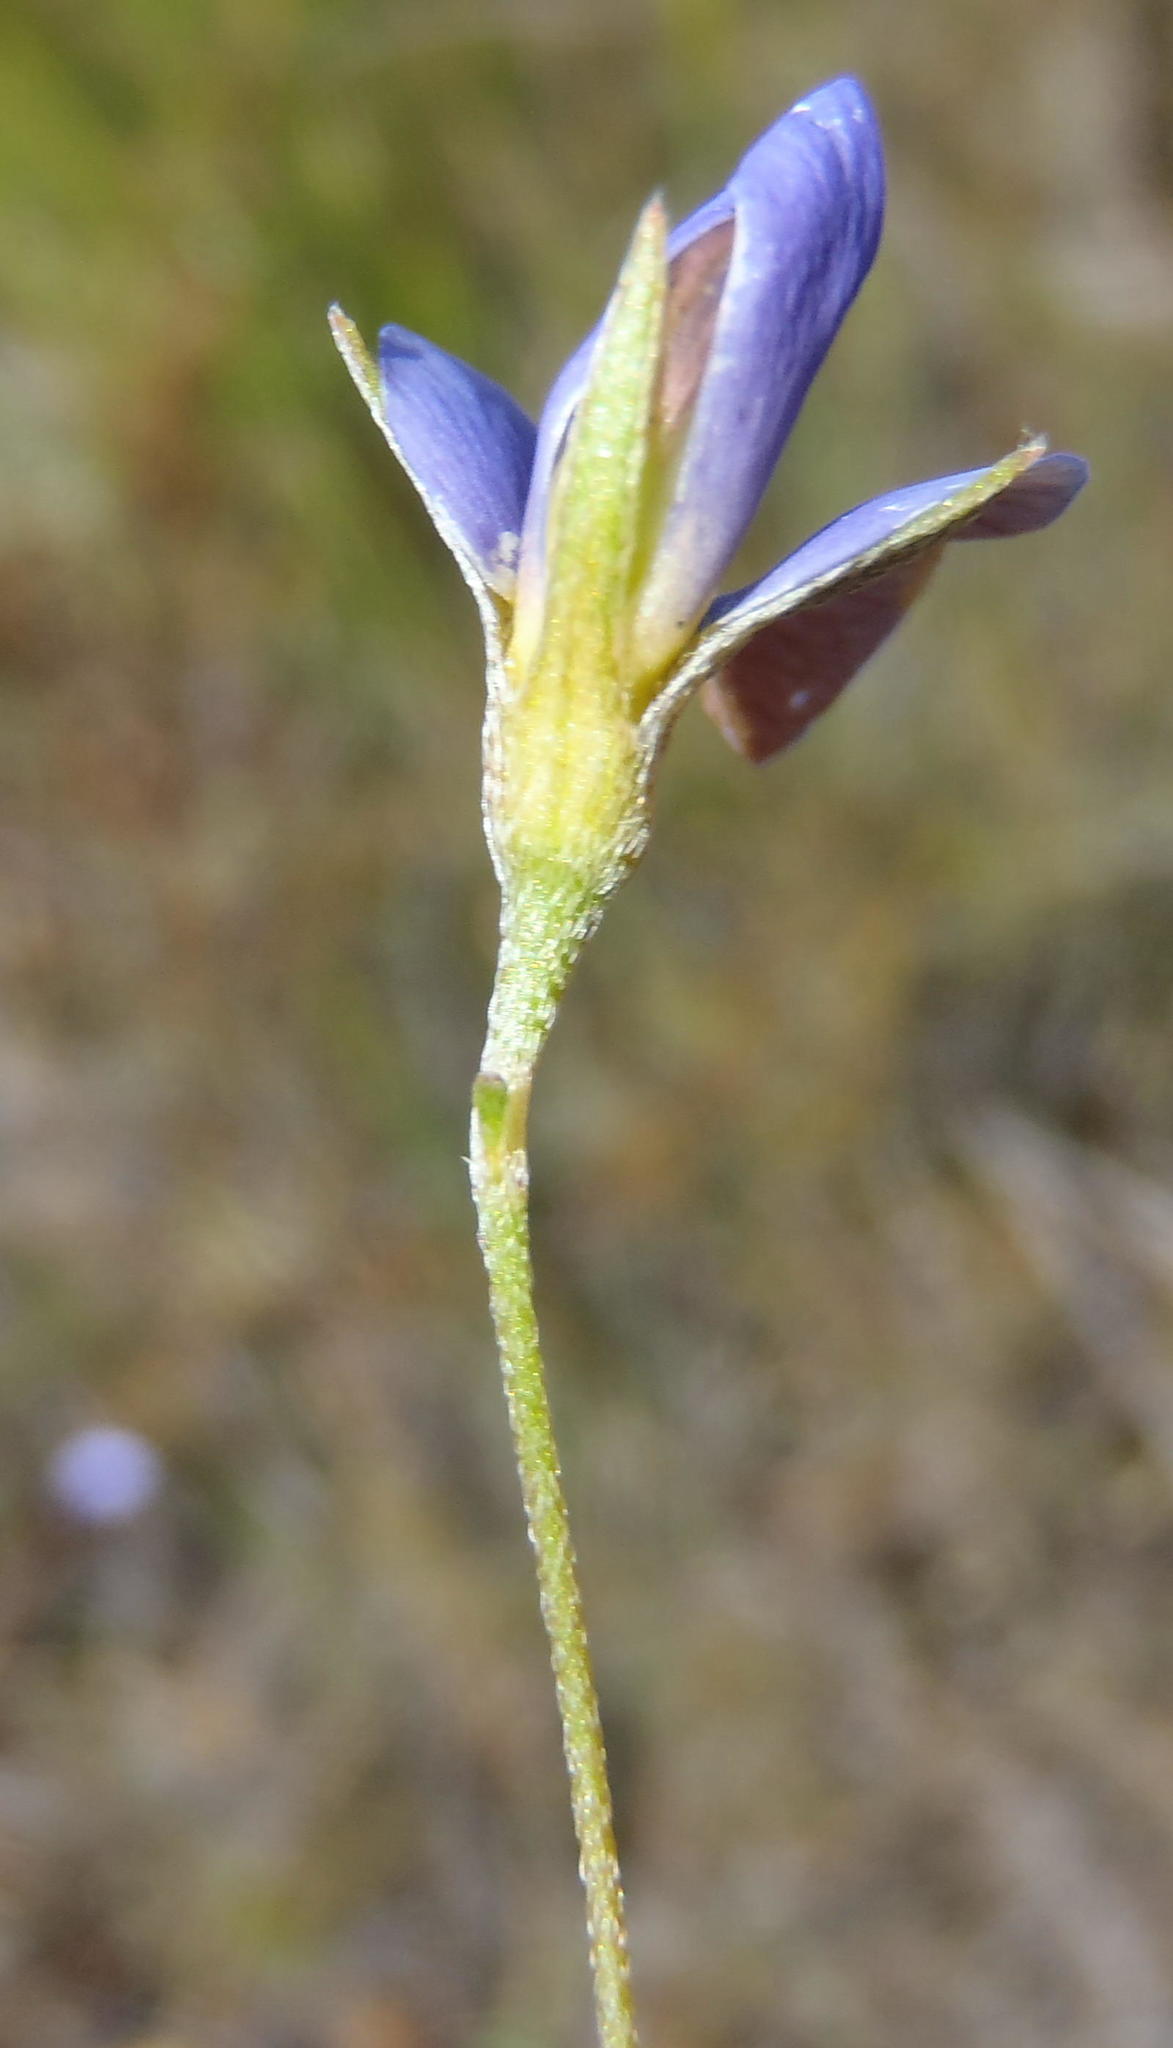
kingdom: Plantae
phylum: Tracheophyta
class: Magnoliopsida
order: Fabales
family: Fabaceae
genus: Lotononis
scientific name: Lotononis filiformis
